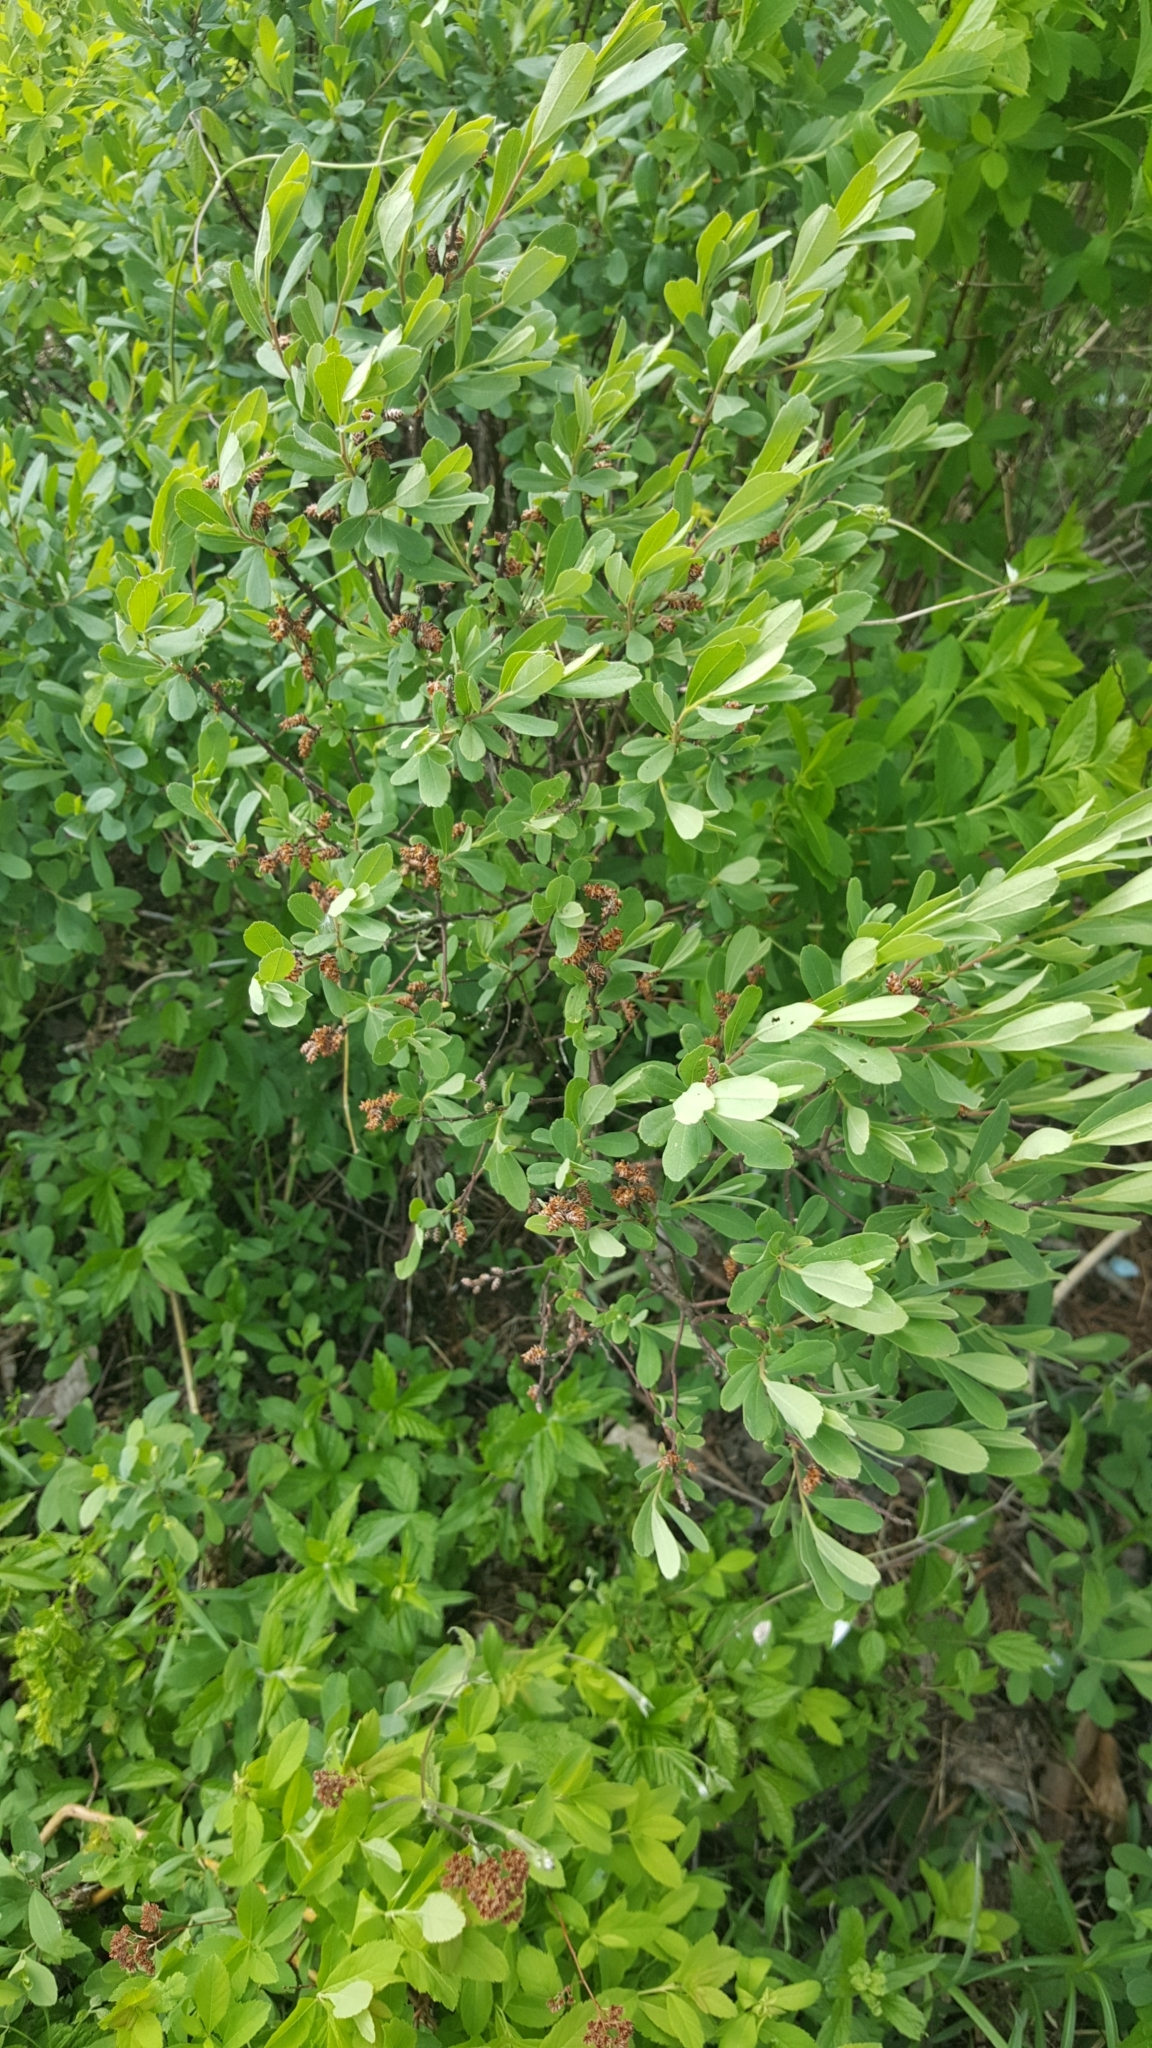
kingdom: Plantae
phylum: Tracheophyta
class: Magnoliopsida
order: Fagales
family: Myricaceae
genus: Myrica
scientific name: Myrica gale
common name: Sweet gale
